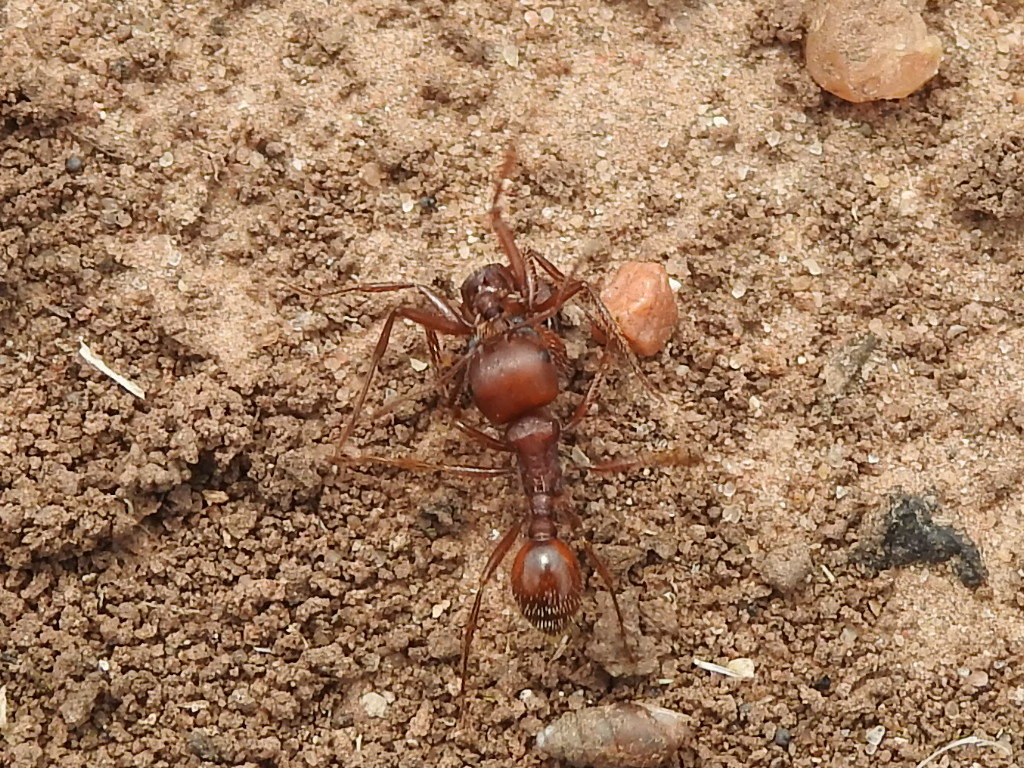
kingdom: Animalia
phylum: Arthropoda
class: Insecta
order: Hymenoptera
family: Formicidae
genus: Pogonomyrmex
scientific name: Pogonomyrmex barbatus
